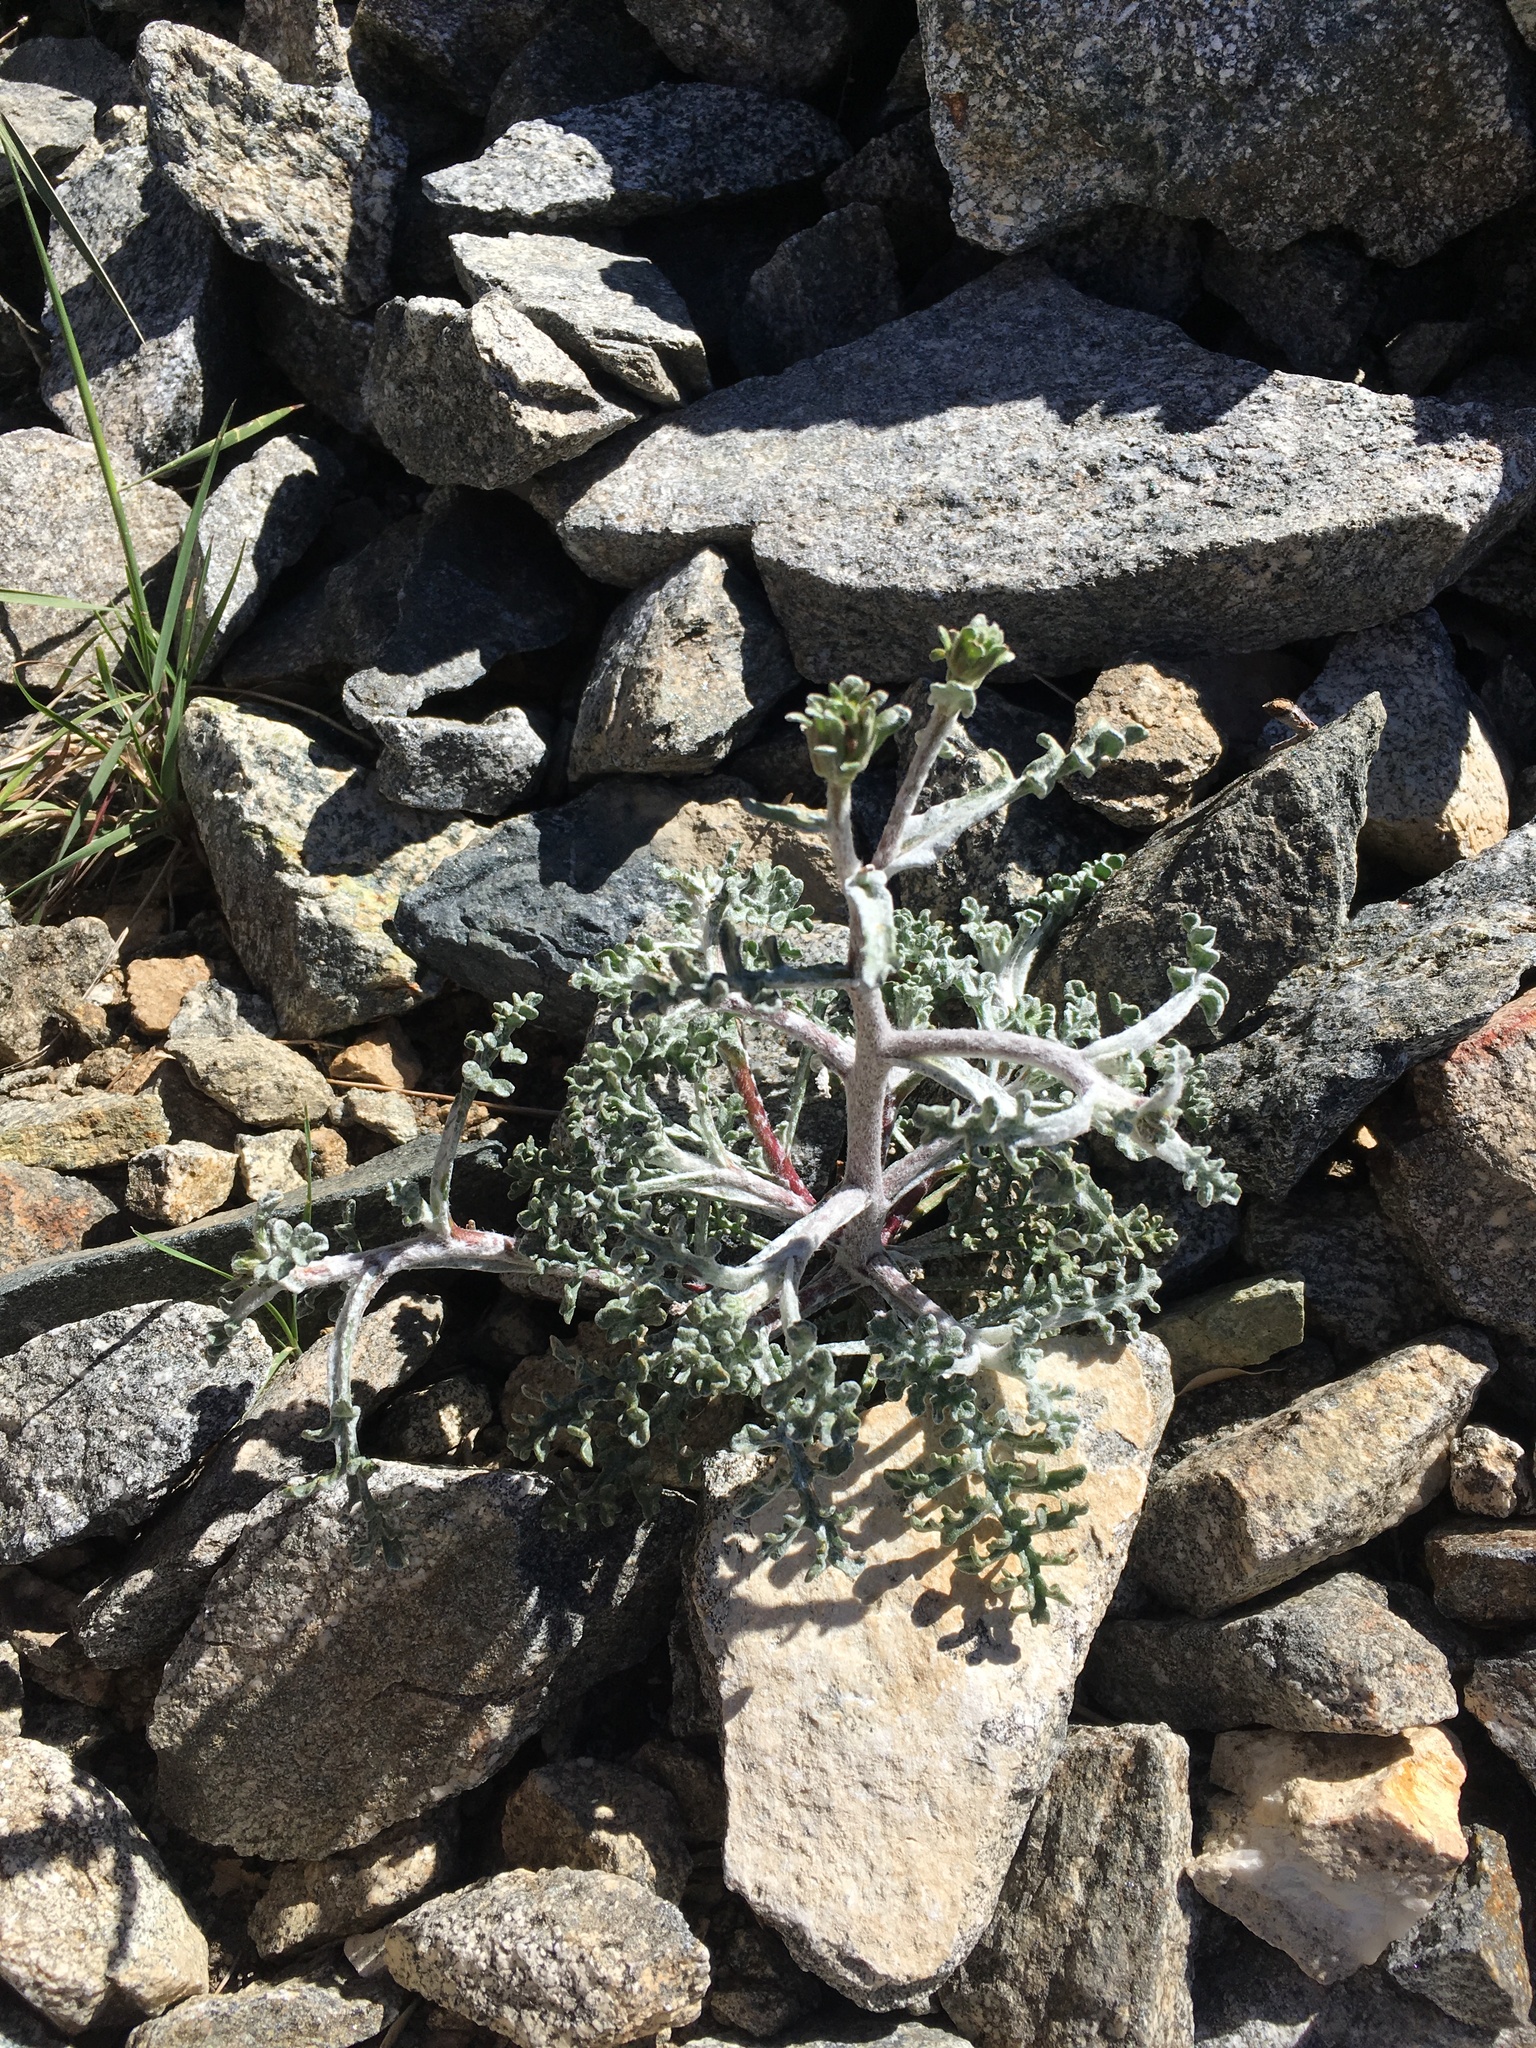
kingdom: Plantae
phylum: Tracheophyta
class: Magnoliopsida
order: Asterales
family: Asteraceae
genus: Chaenactis
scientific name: Chaenactis douglasii
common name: Hoary pincushion
